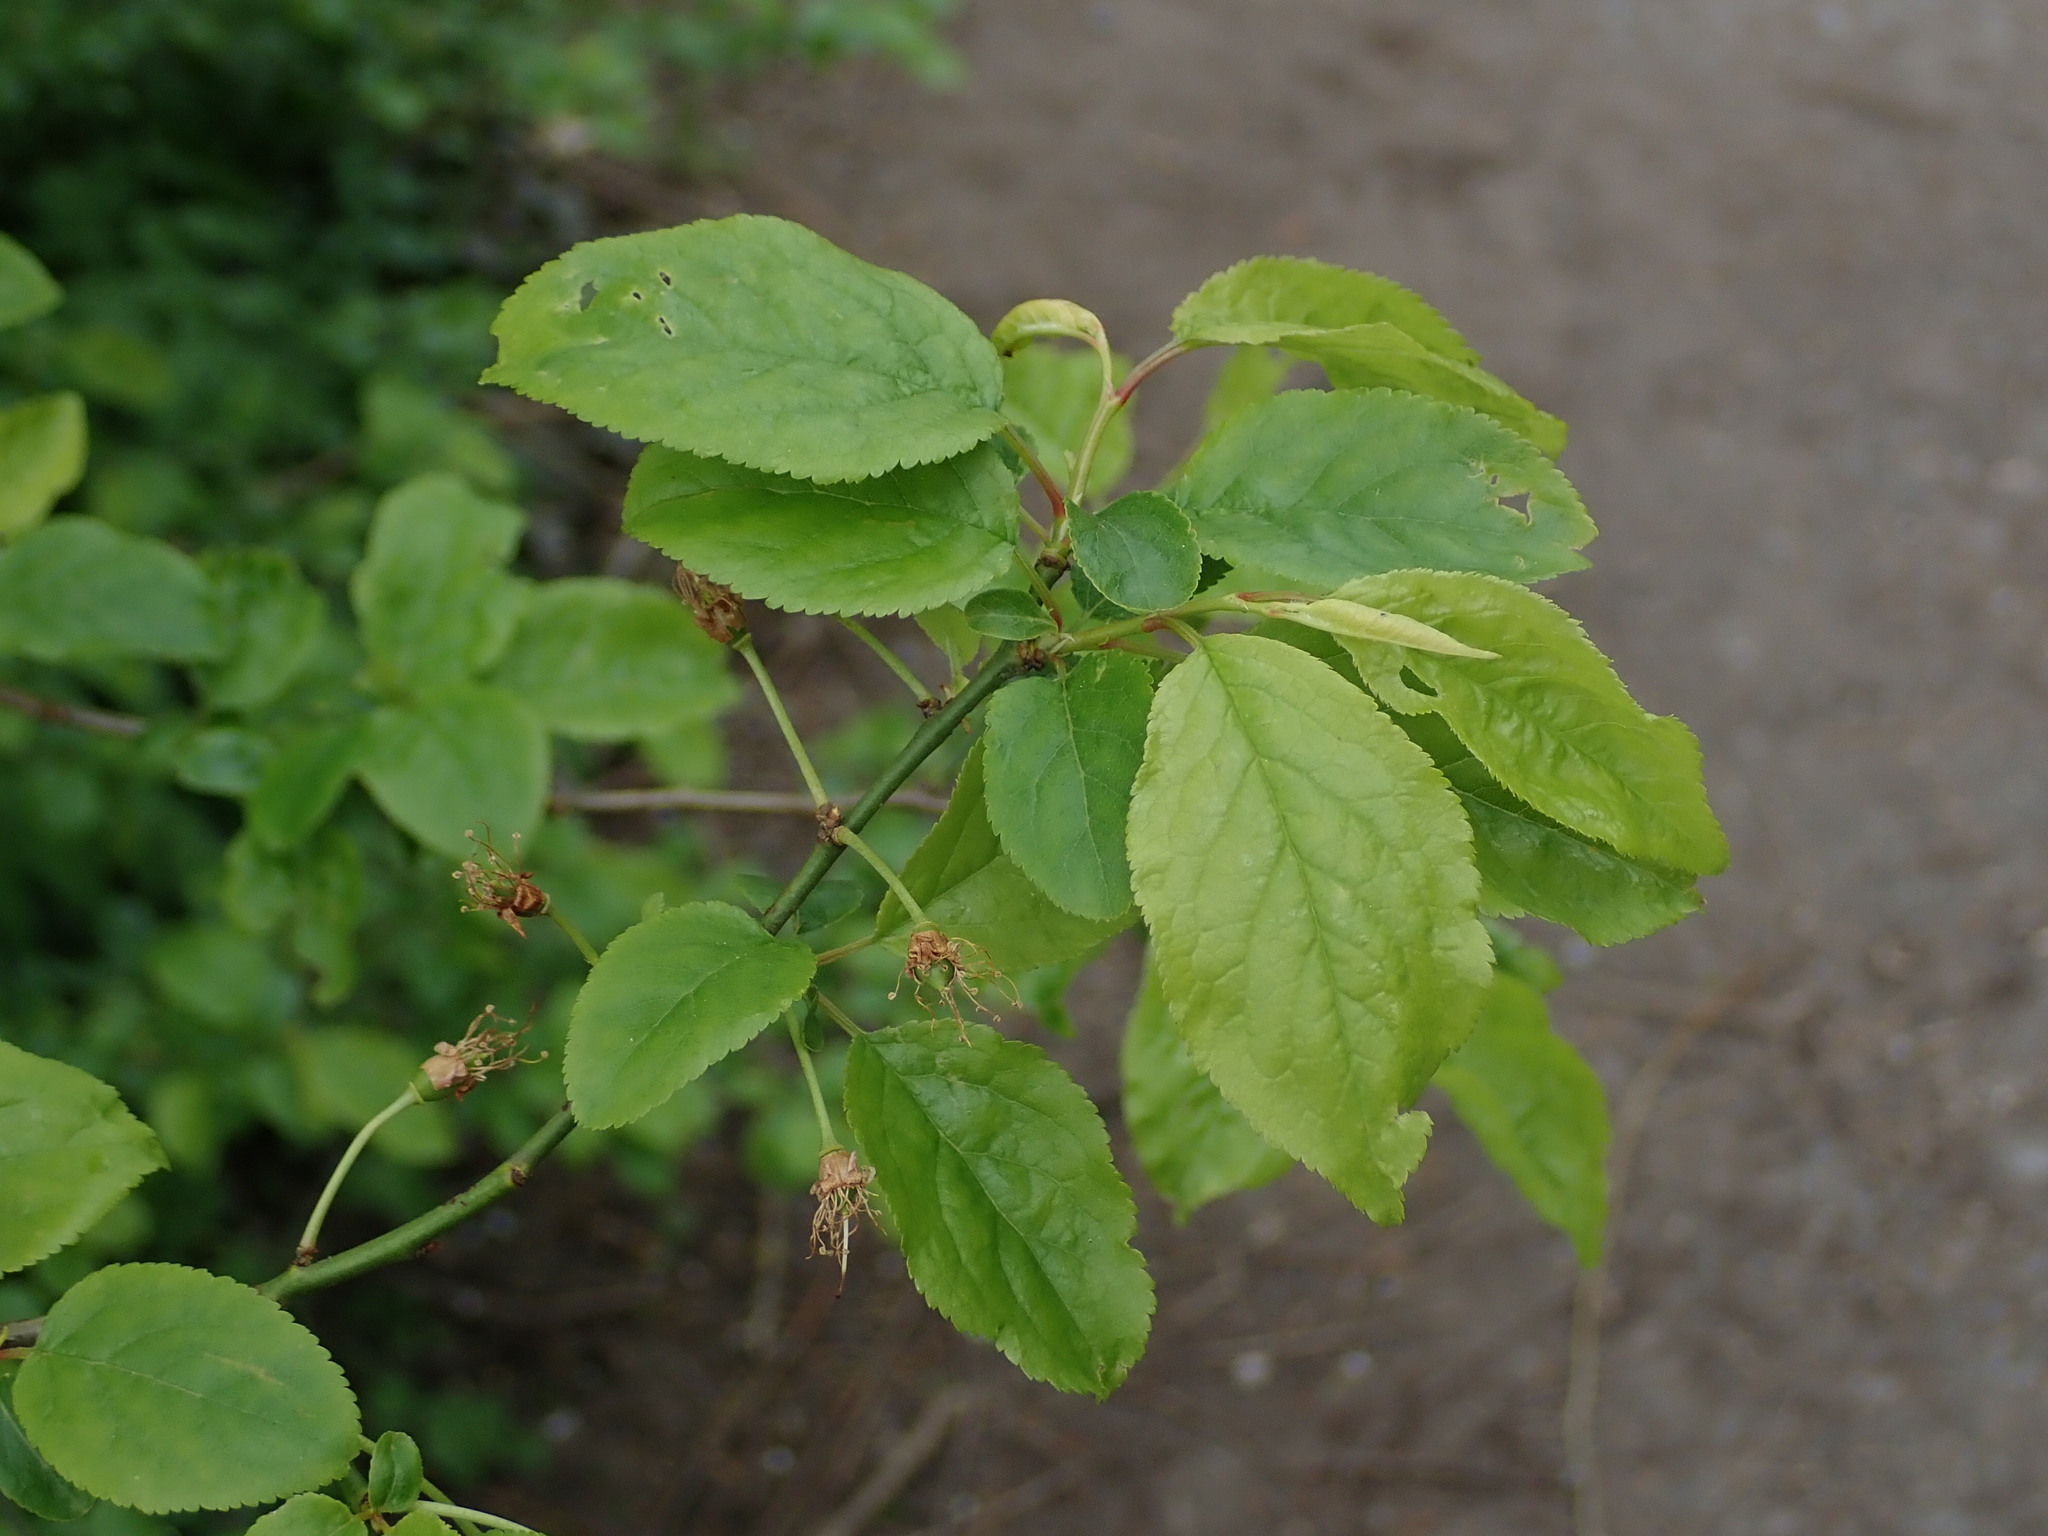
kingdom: Plantae
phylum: Tracheophyta
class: Magnoliopsida
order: Rosales
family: Rosaceae
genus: Prunus
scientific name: Prunus cerasifera
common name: Cherry plum
